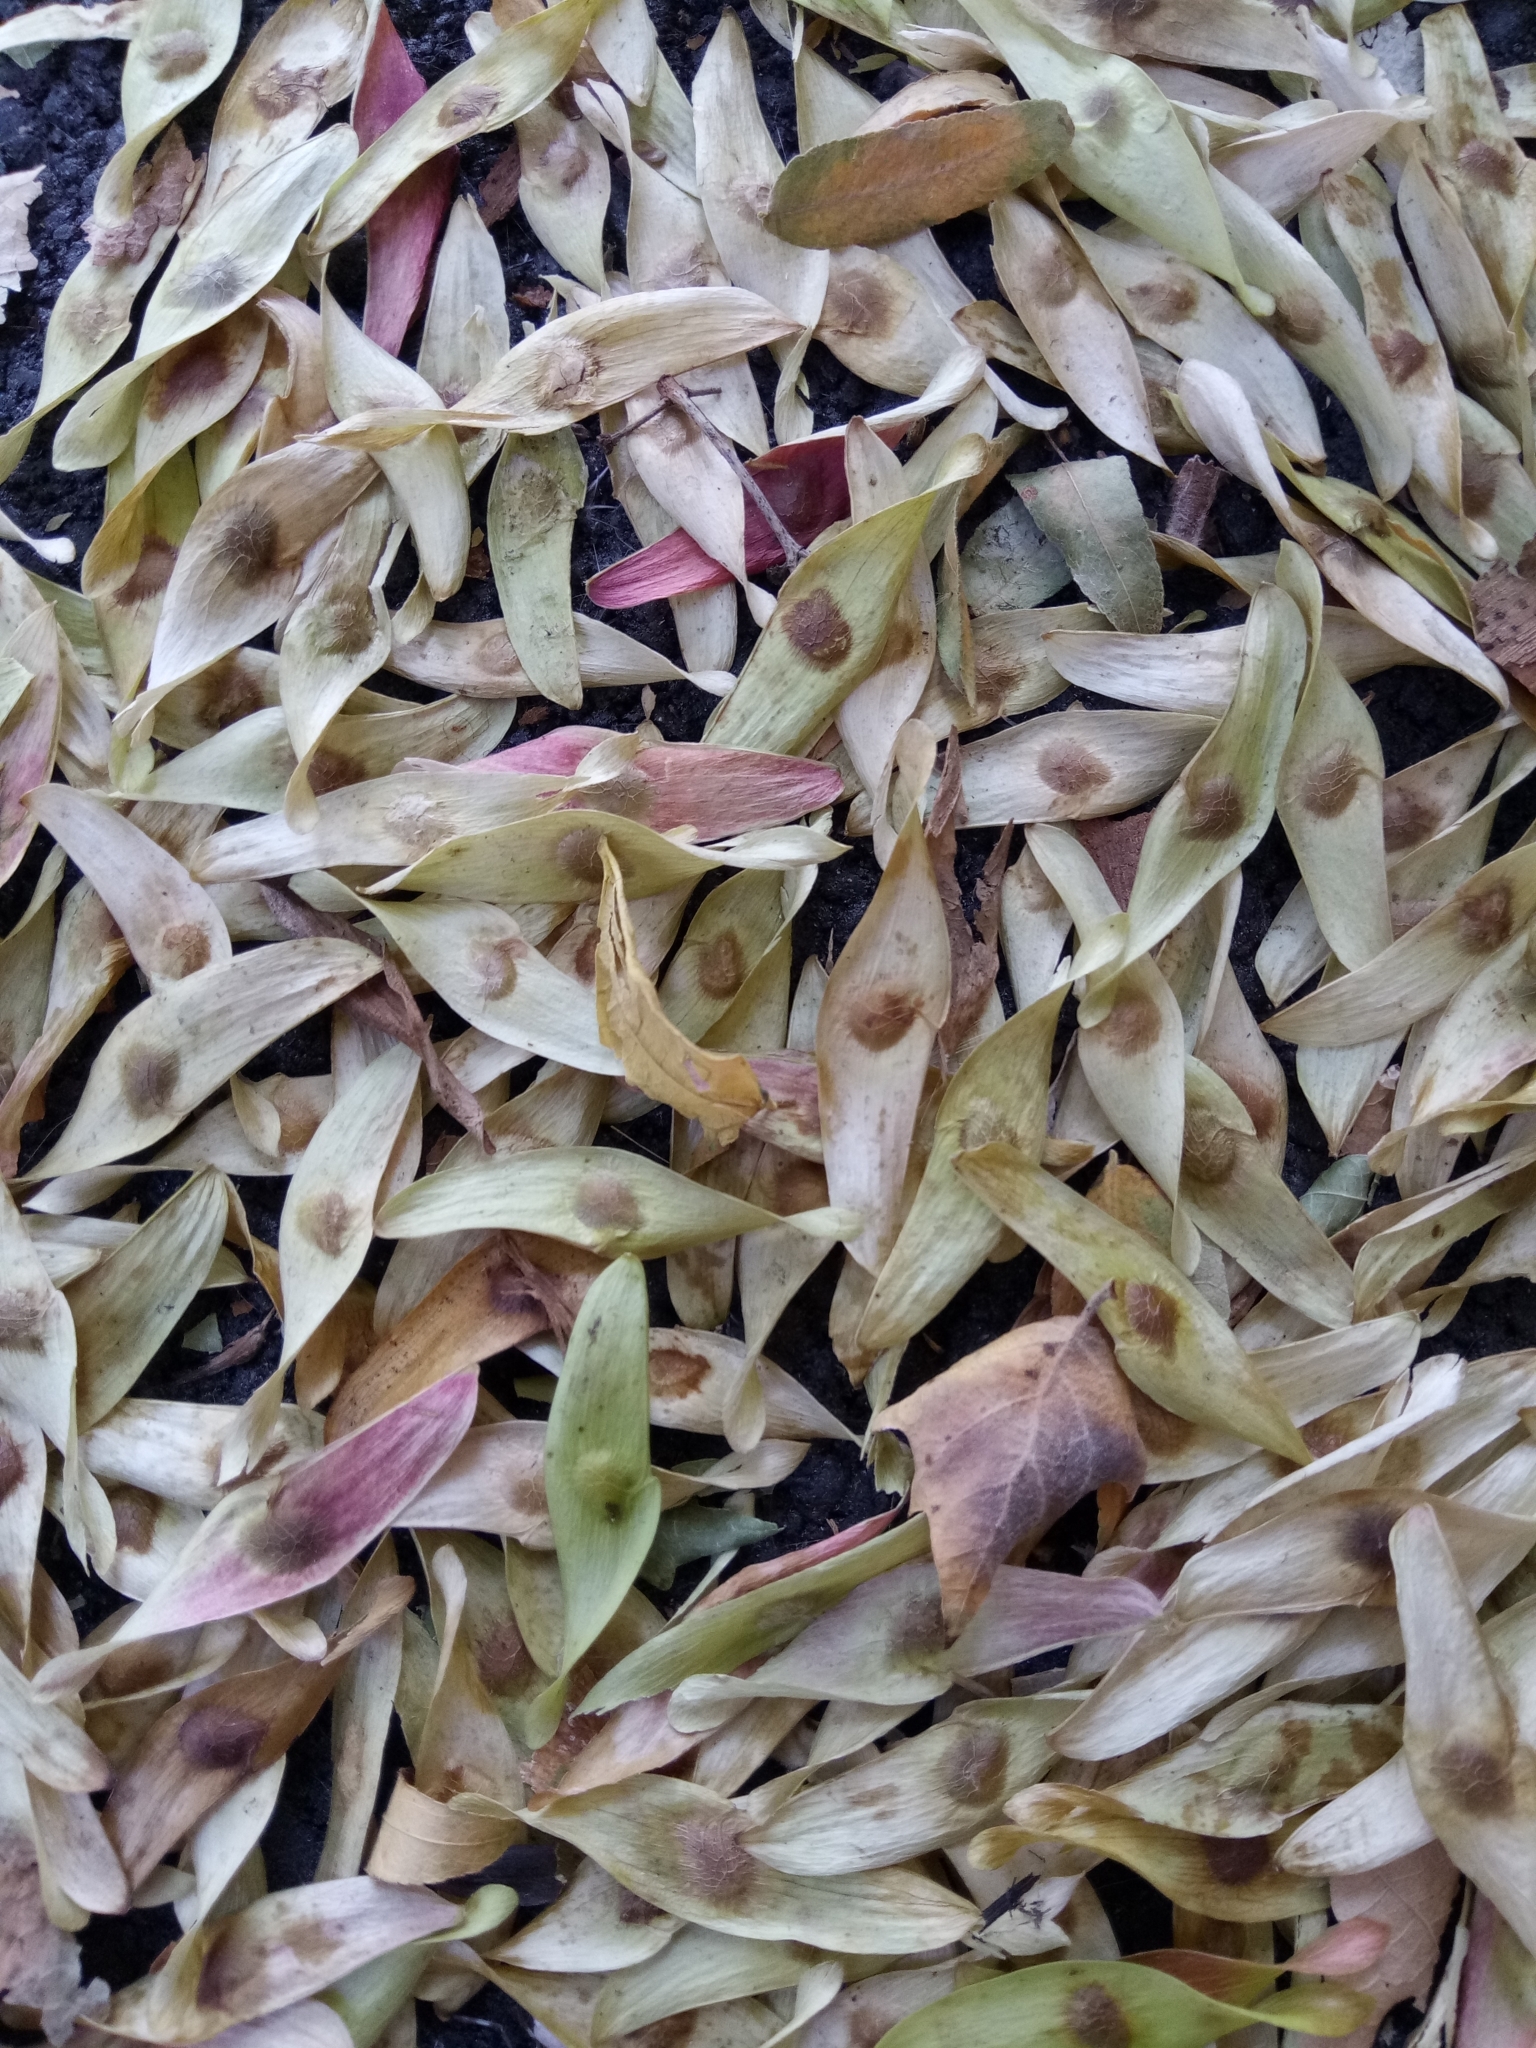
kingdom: Plantae
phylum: Tracheophyta
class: Magnoliopsida
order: Sapindales
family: Simaroubaceae
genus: Ailanthus
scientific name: Ailanthus altissima
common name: Tree-of-heaven
